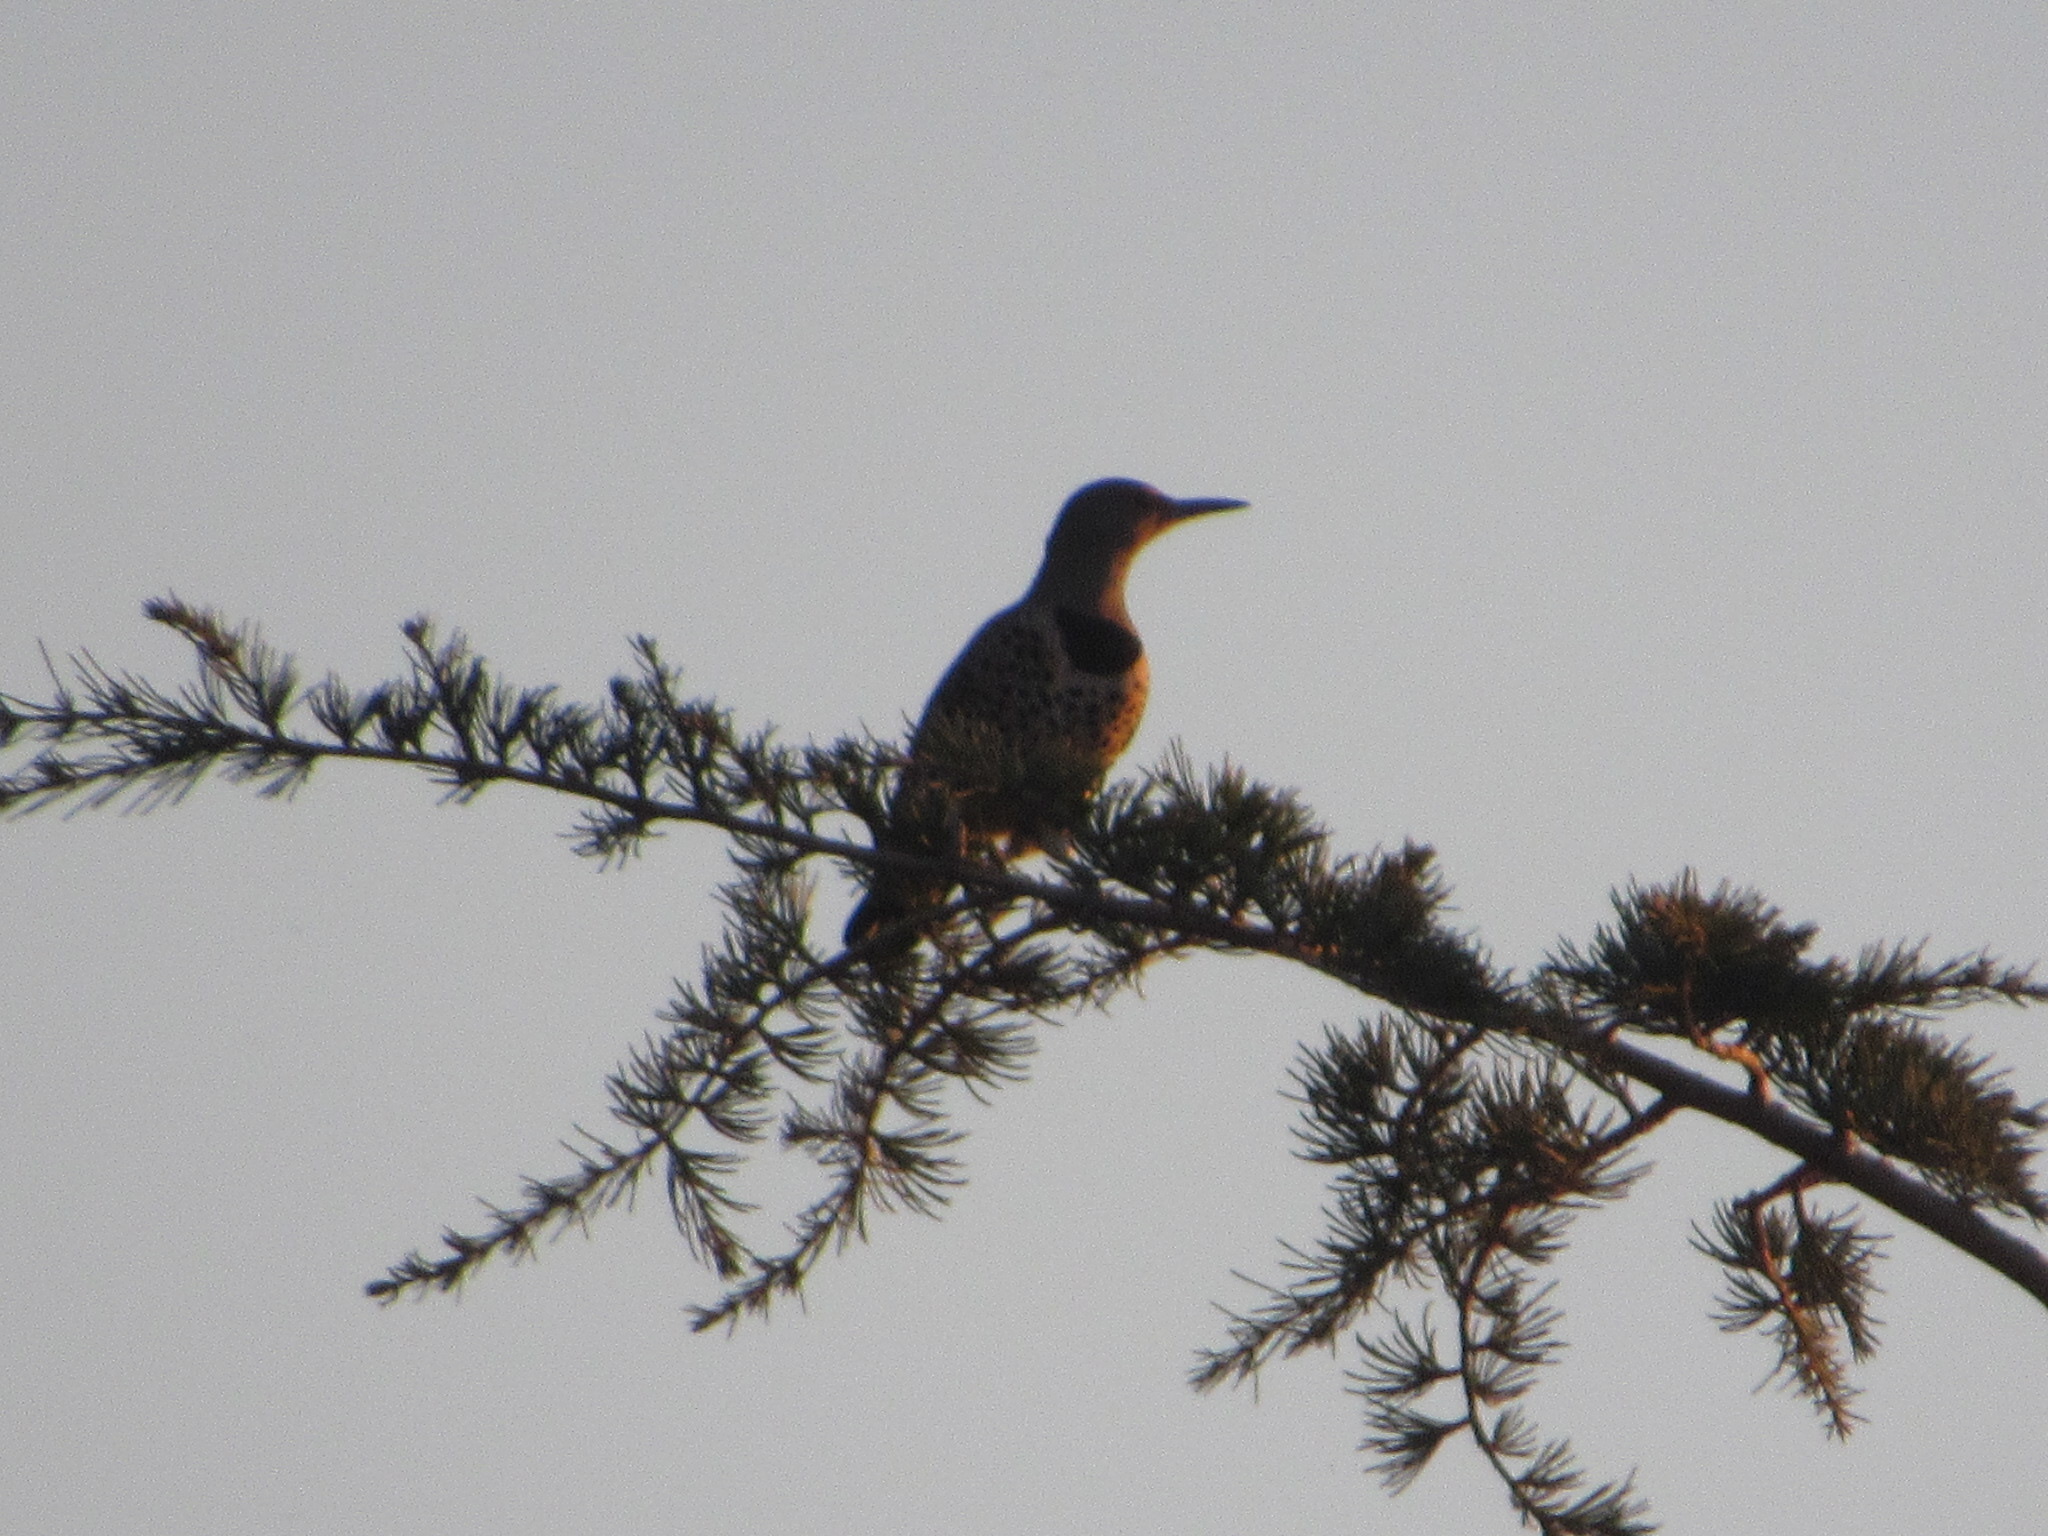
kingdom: Animalia
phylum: Chordata
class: Aves
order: Piciformes
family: Picidae
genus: Colaptes
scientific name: Colaptes auratus
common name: Northern flicker
